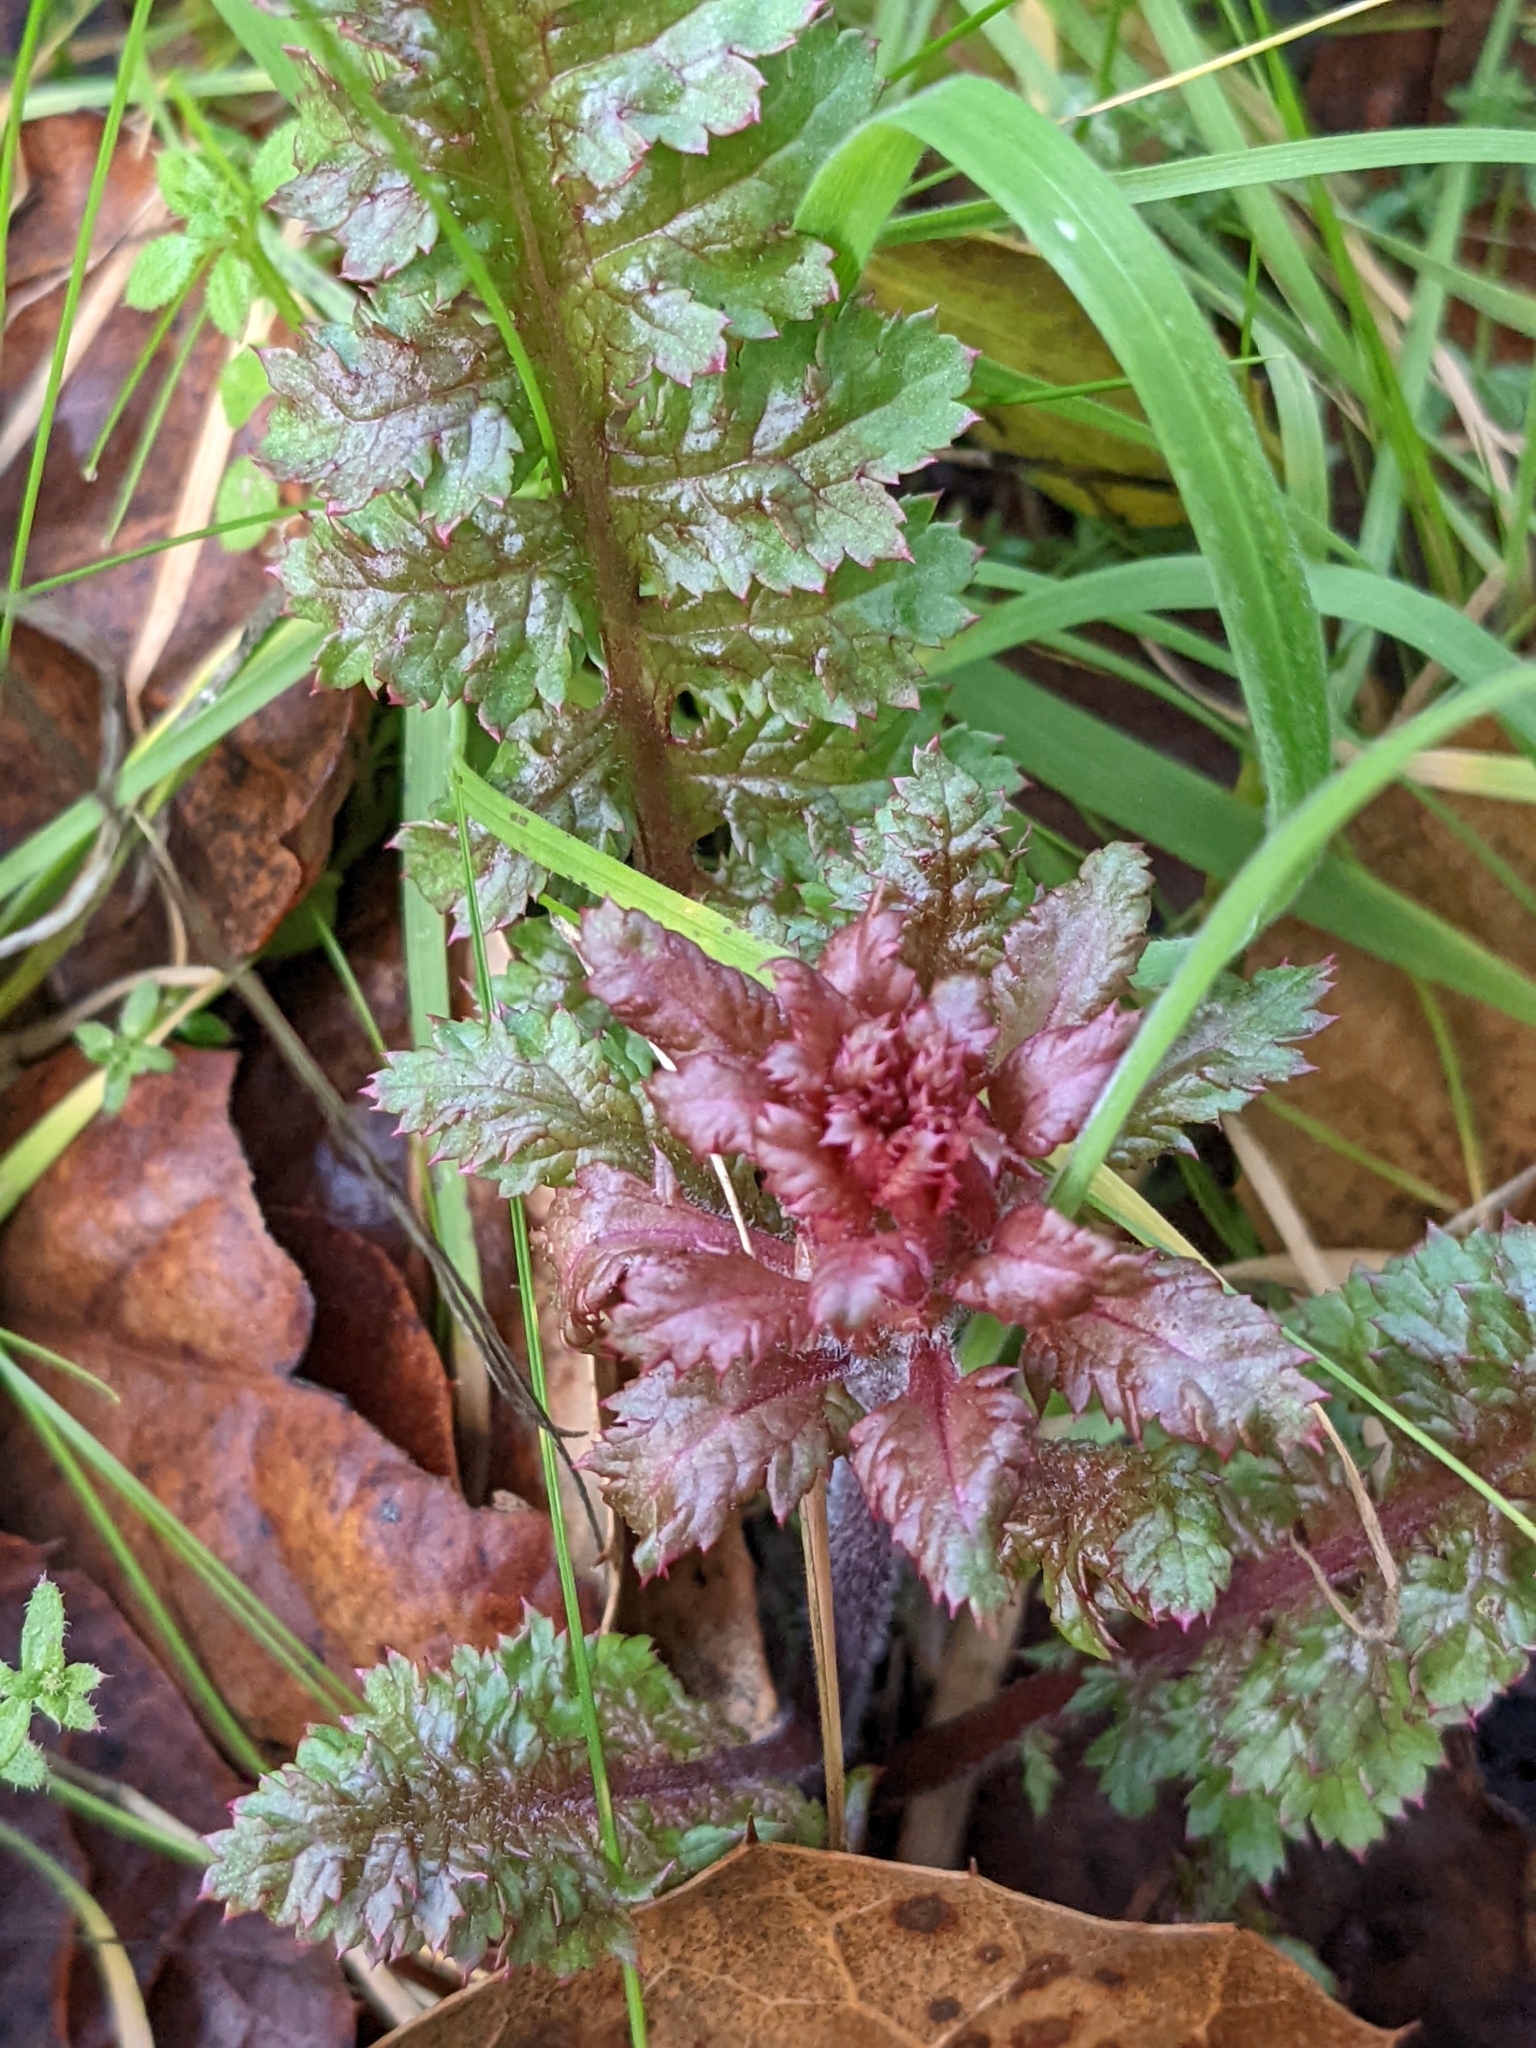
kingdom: Plantae
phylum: Tracheophyta
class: Magnoliopsida
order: Lamiales
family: Orobanchaceae
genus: Pedicularis
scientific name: Pedicularis densiflora
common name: Indian warrior
